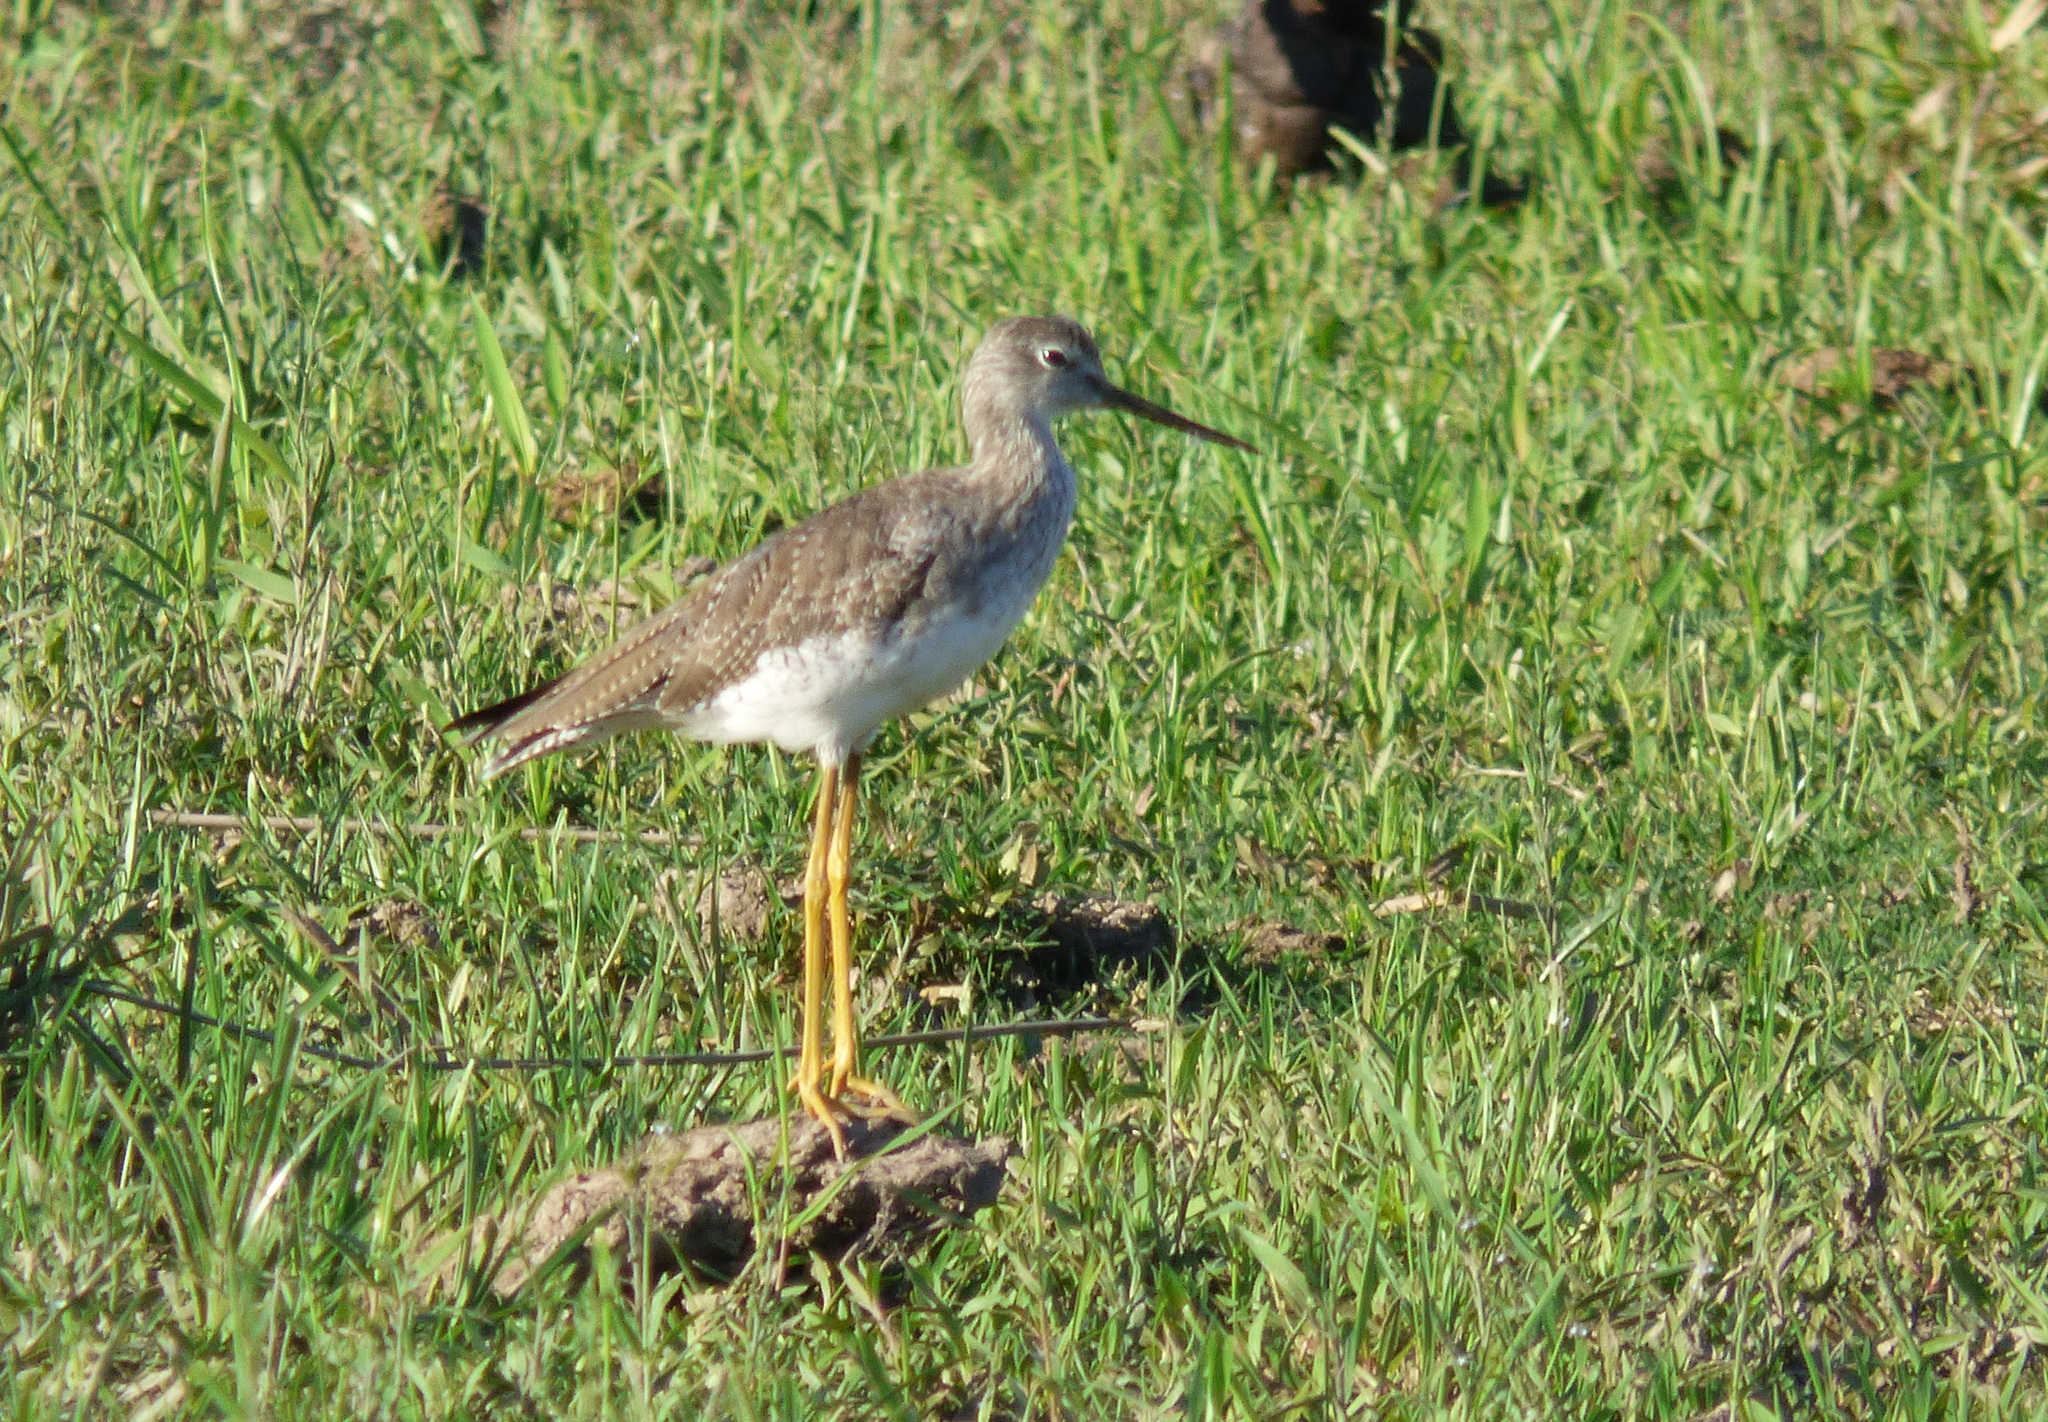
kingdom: Animalia
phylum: Chordata
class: Aves
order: Charadriiformes
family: Scolopacidae
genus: Tringa
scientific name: Tringa melanoleuca
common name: Greater yellowlegs
